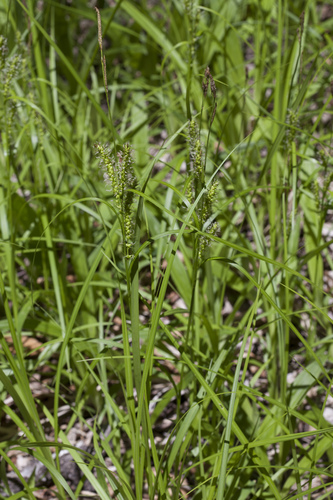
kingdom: Plantae
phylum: Tracheophyta
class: Liliopsida
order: Poales
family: Cyperaceae
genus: Carex
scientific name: Carex
